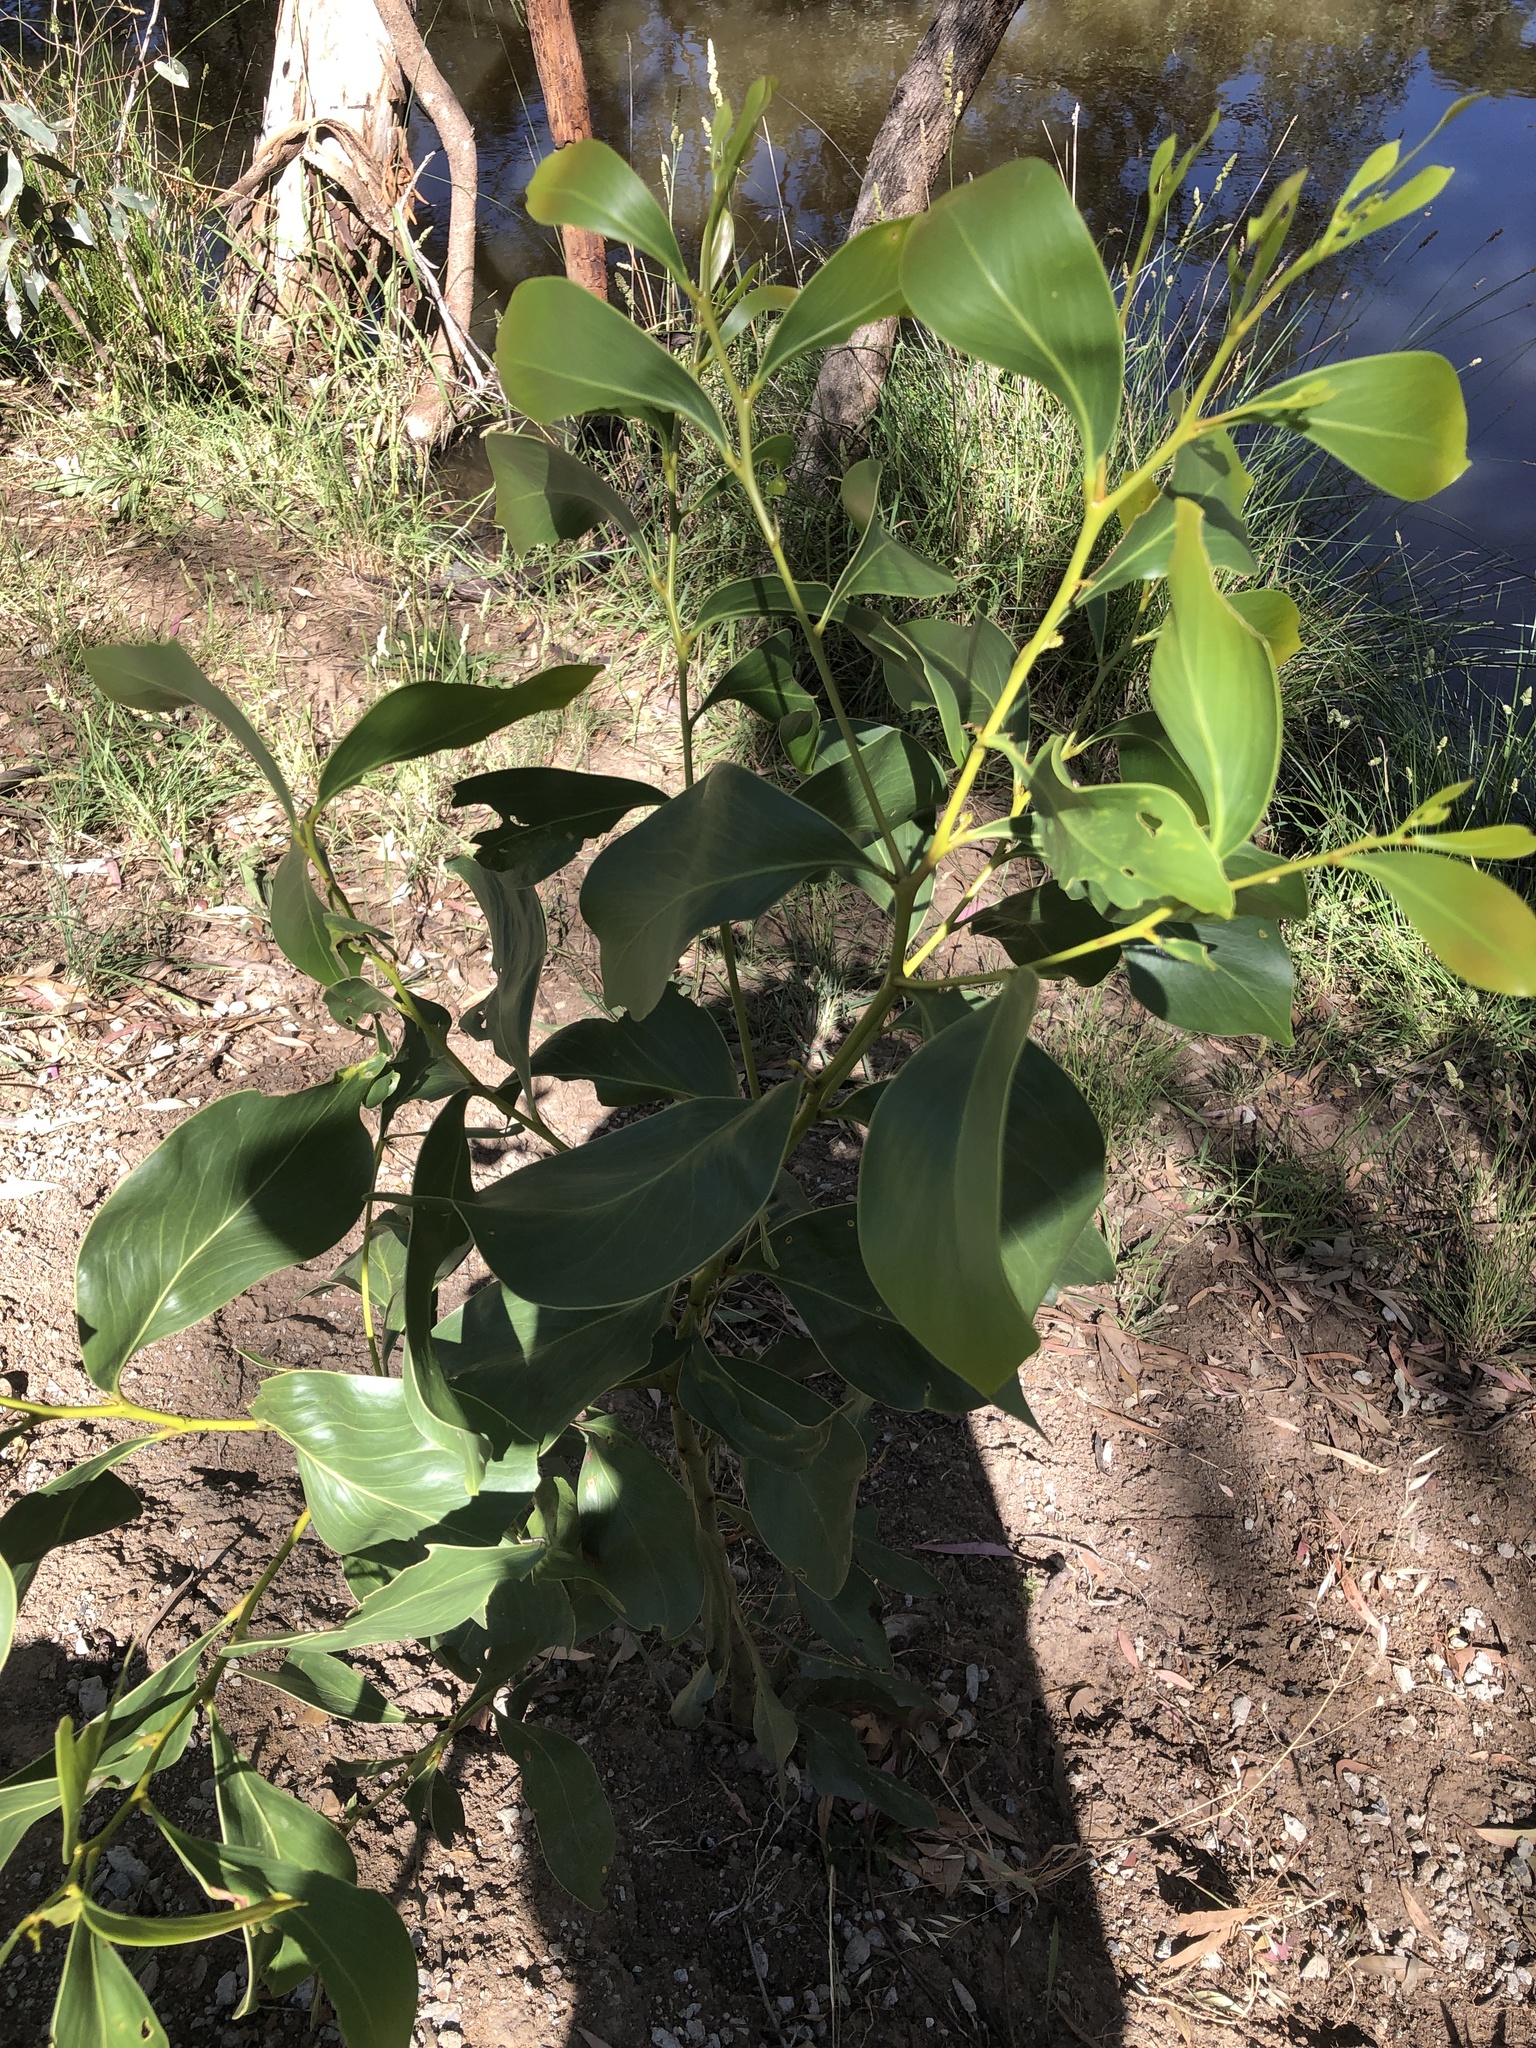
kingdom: Plantae
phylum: Tracheophyta
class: Magnoliopsida
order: Fabales
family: Fabaceae
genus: Acacia
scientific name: Acacia pycnantha
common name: Golden wattle
